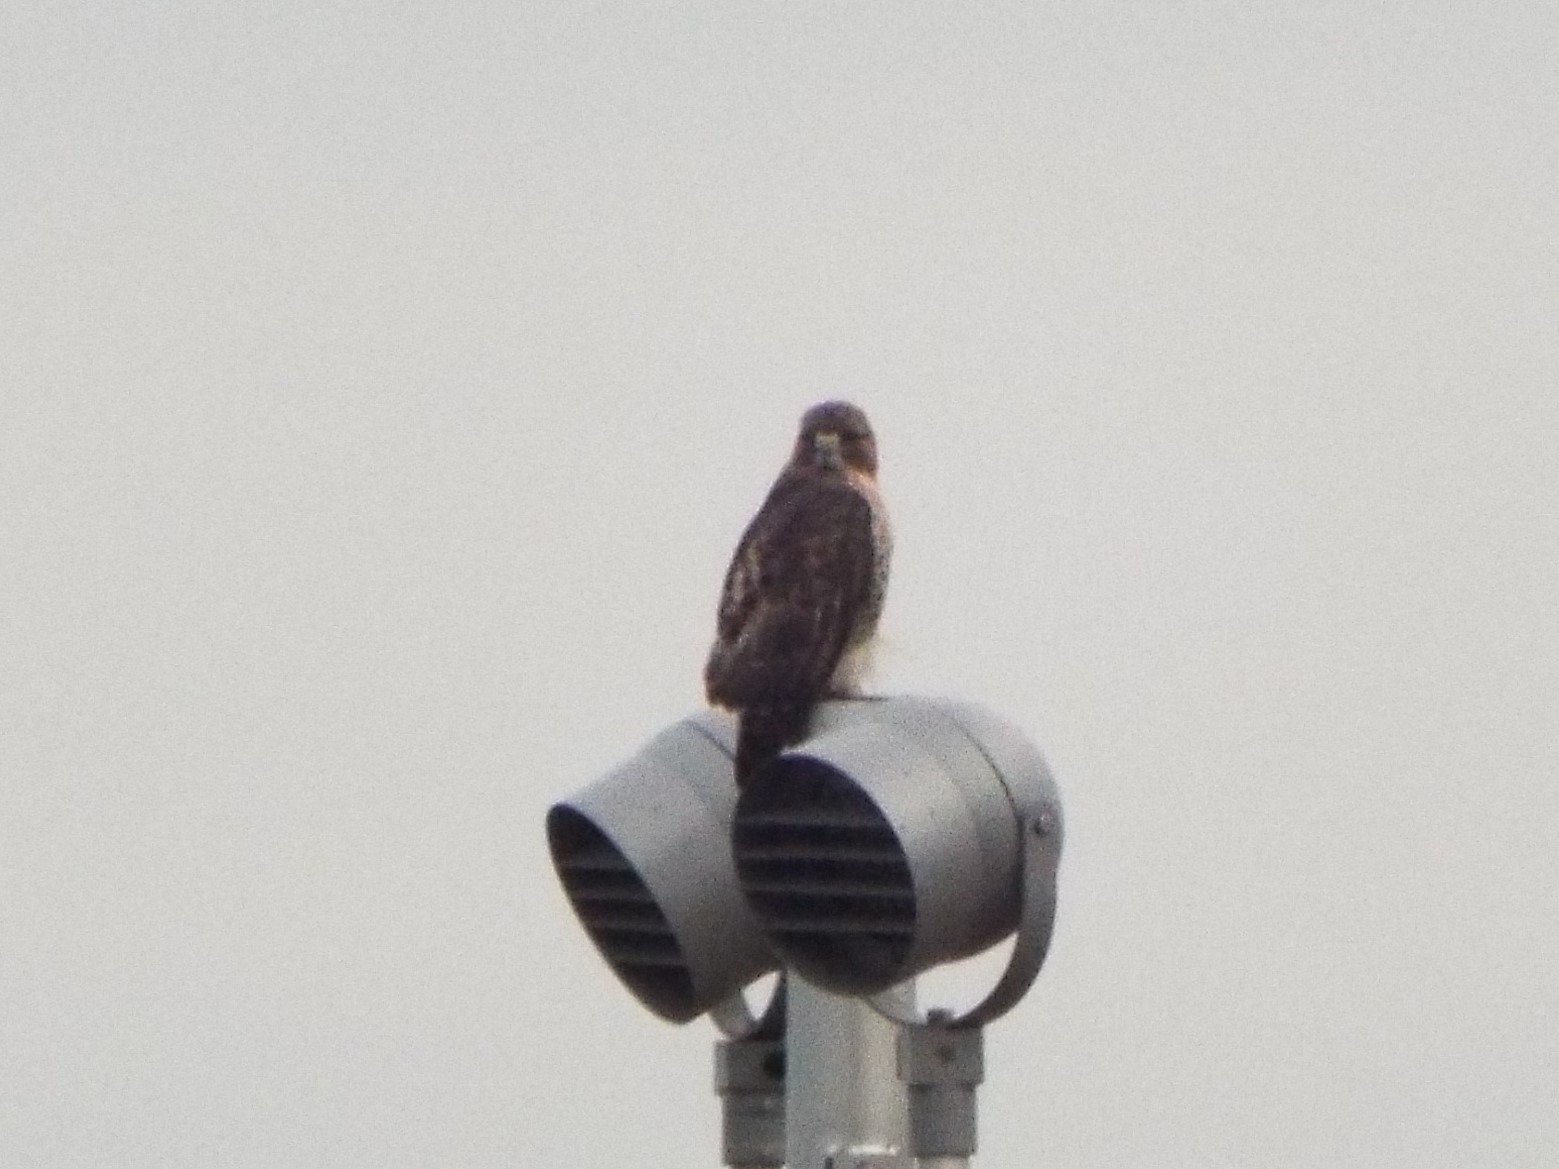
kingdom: Animalia
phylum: Chordata
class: Aves
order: Accipitriformes
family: Accipitridae
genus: Buteo
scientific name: Buteo jamaicensis
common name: Red-tailed hawk
